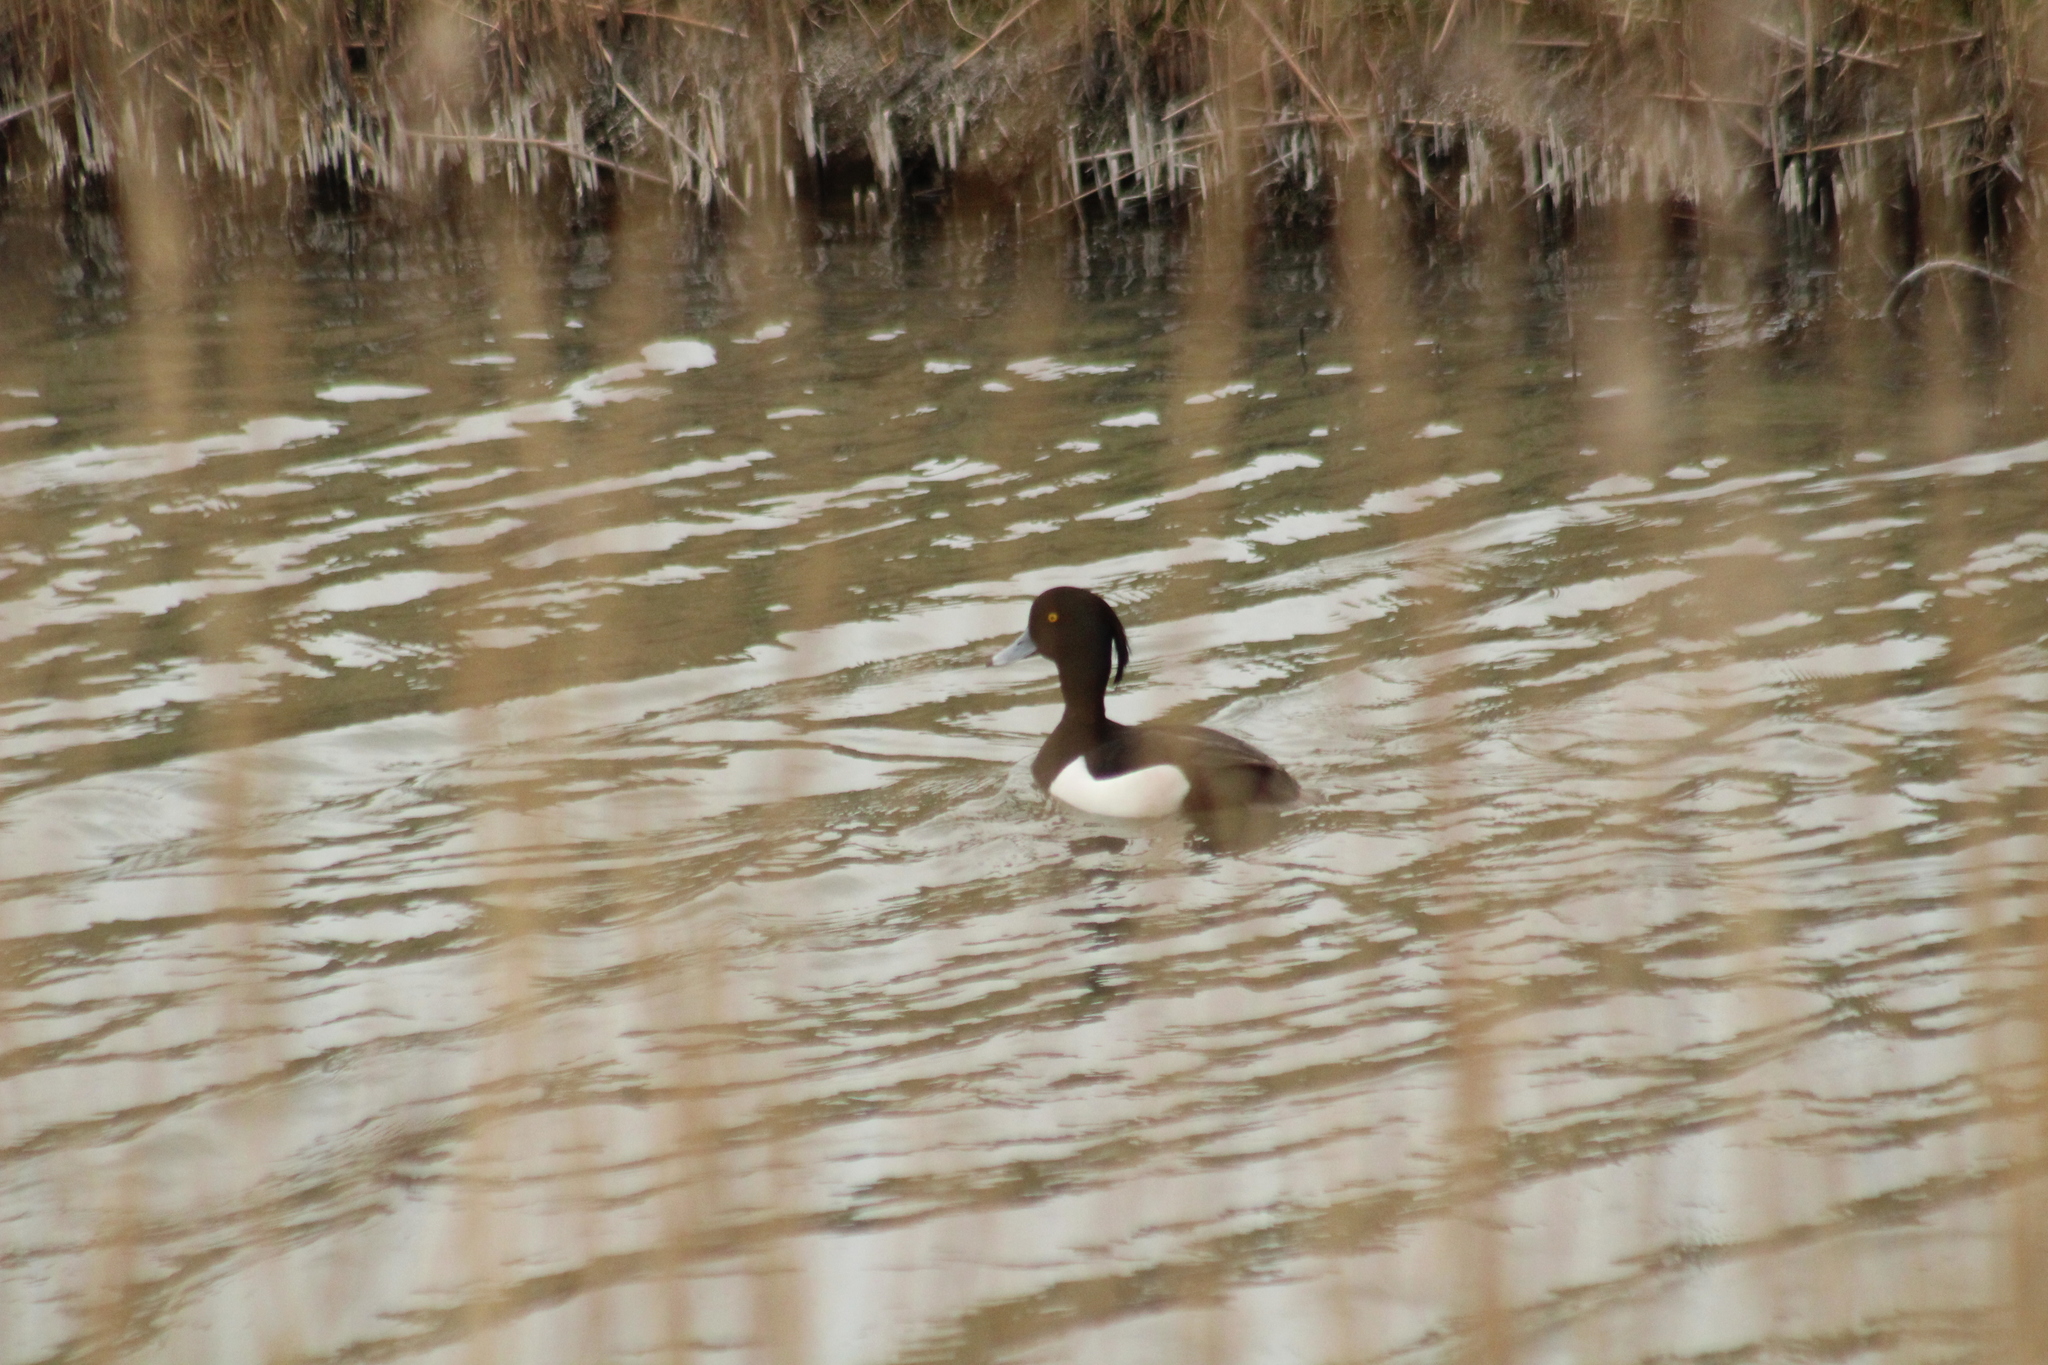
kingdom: Animalia
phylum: Chordata
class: Aves
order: Anseriformes
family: Anatidae
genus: Aythya
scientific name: Aythya fuligula
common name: Tufted duck
